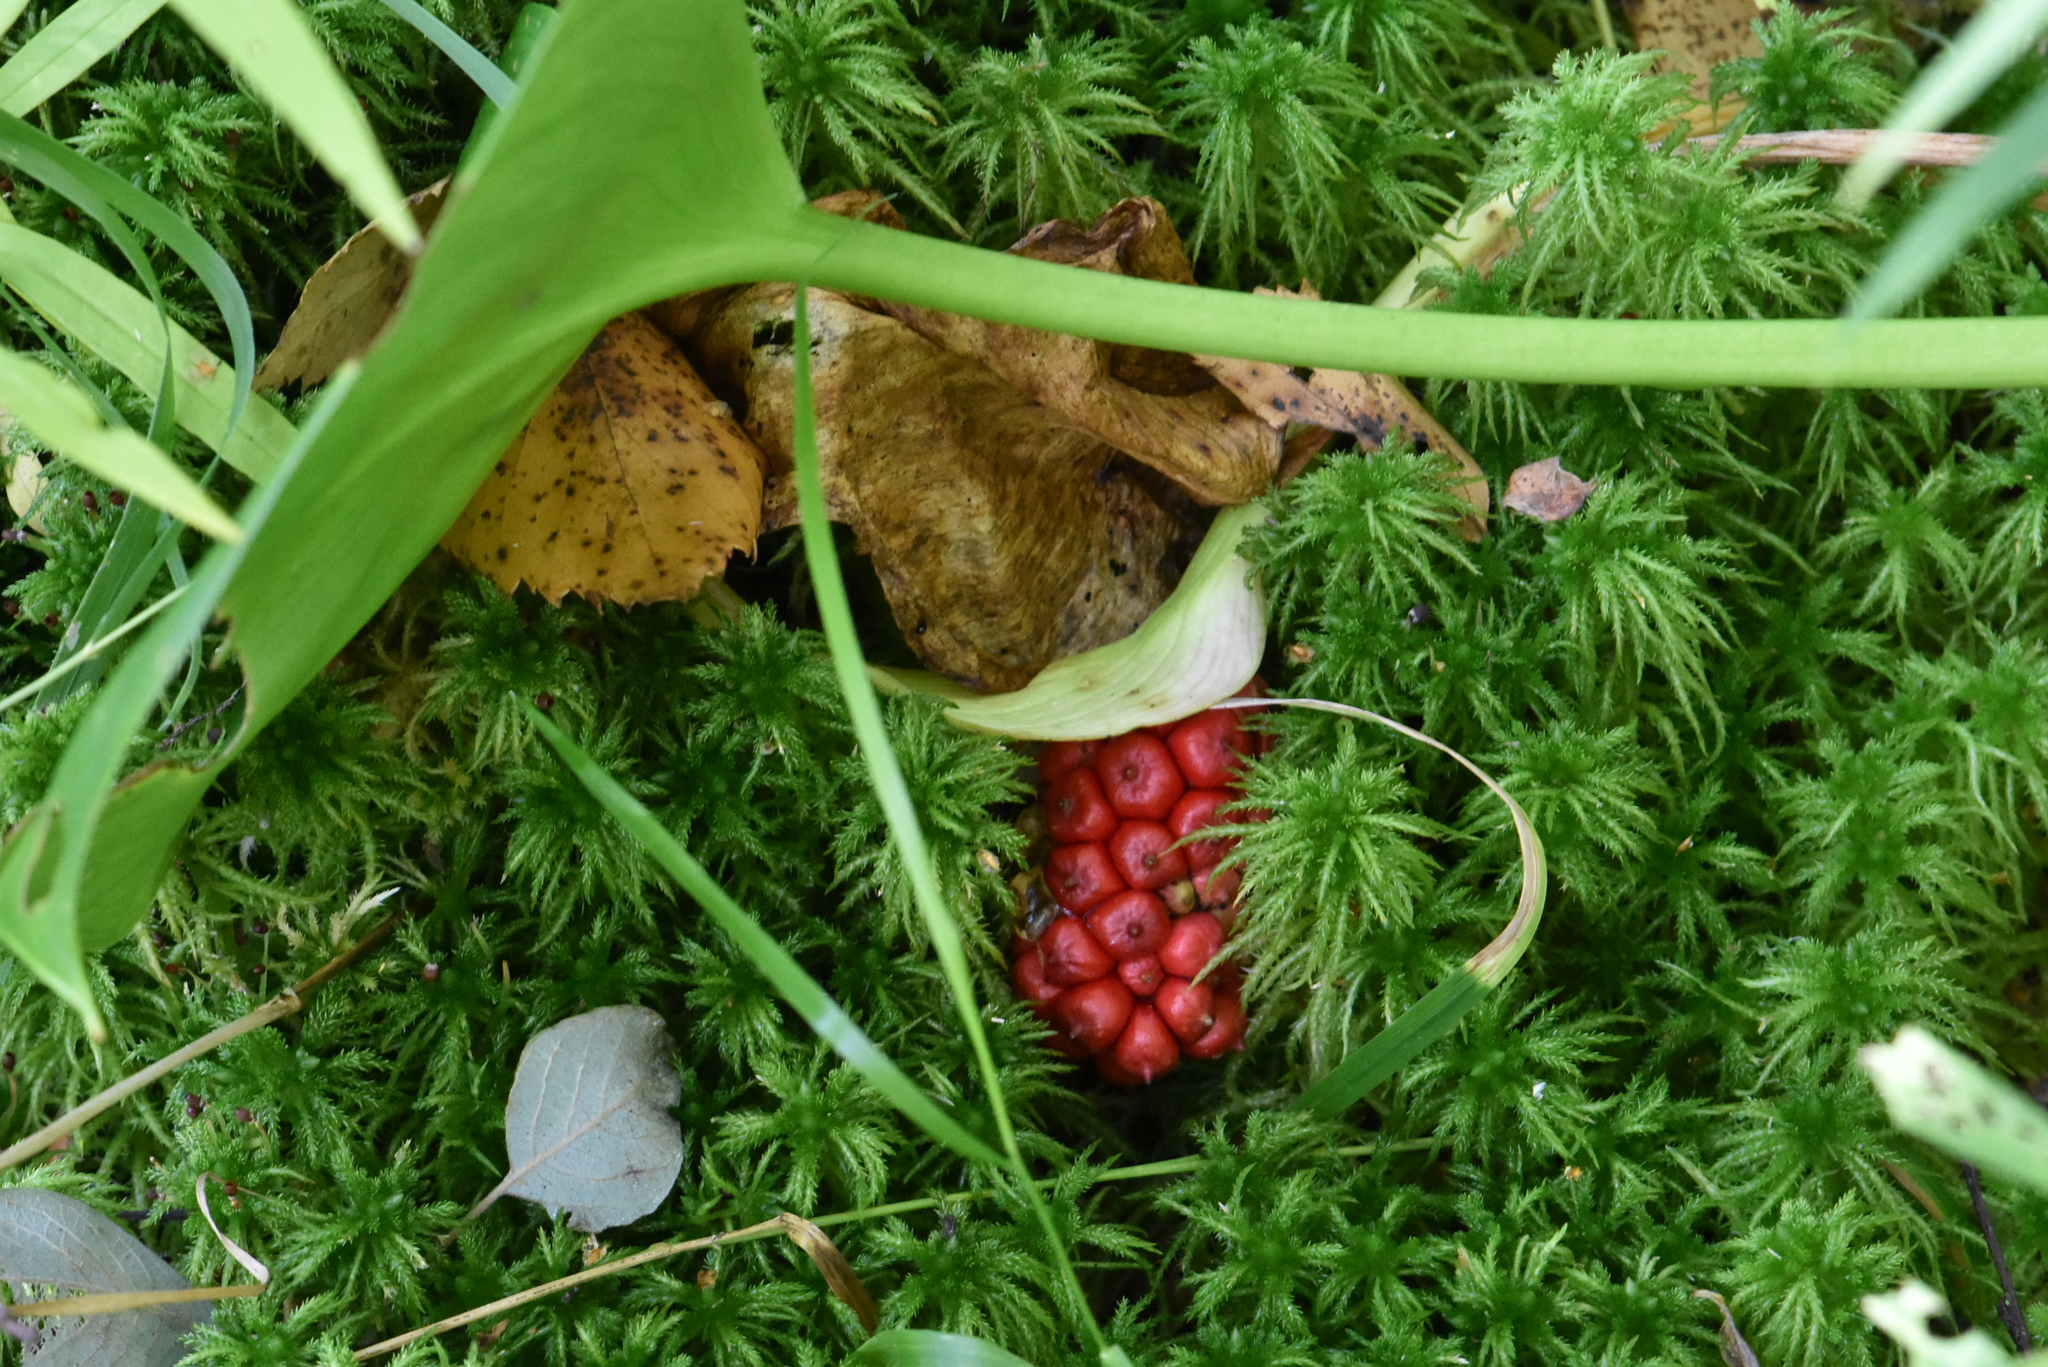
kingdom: Plantae
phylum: Tracheophyta
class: Liliopsida
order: Alismatales
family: Araceae
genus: Calla
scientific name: Calla palustris
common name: Bog arum
